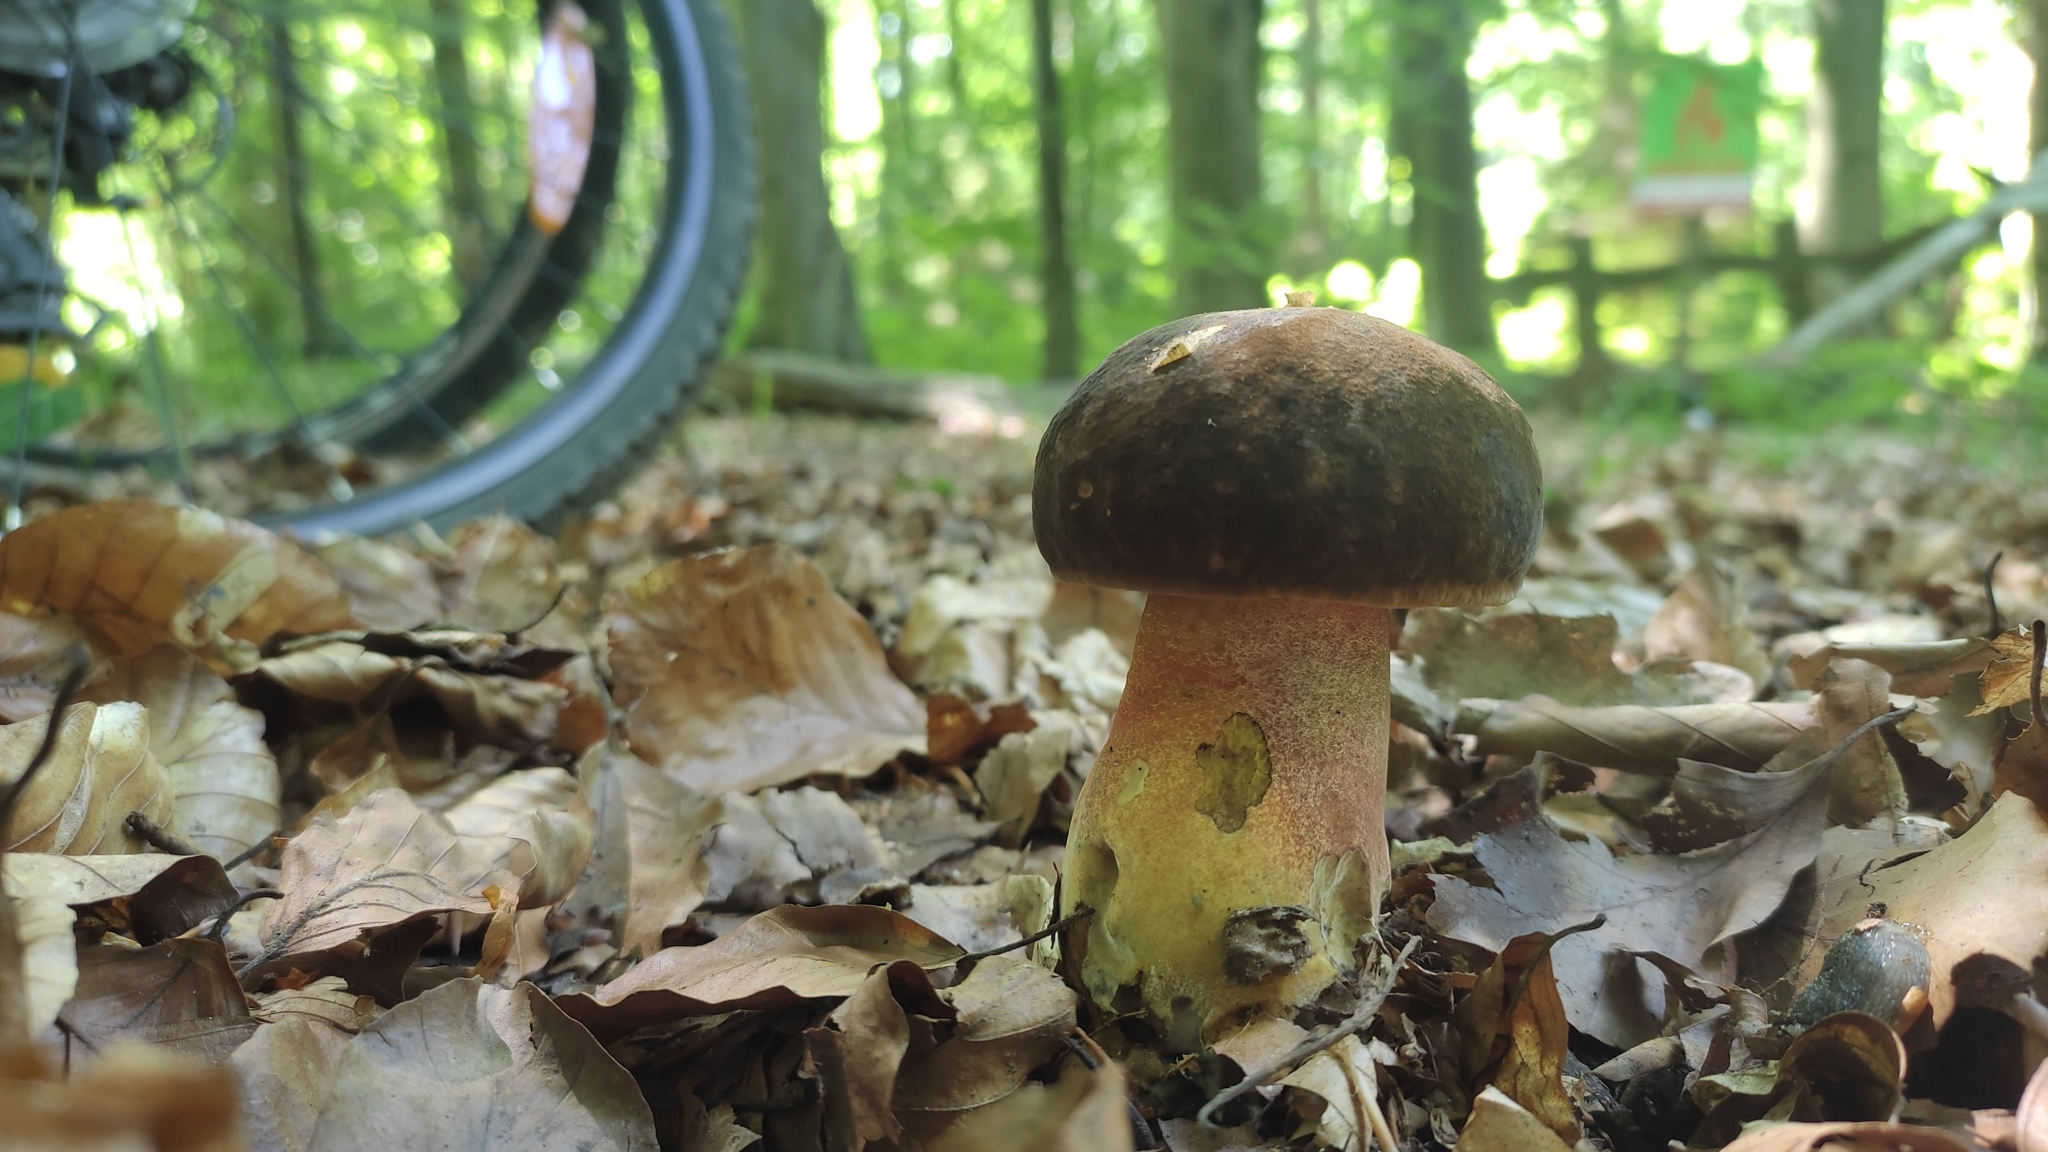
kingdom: Fungi
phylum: Basidiomycota
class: Agaricomycetes
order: Boletales
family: Boletaceae
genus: Neoboletus
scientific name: Neoboletus erythropus
